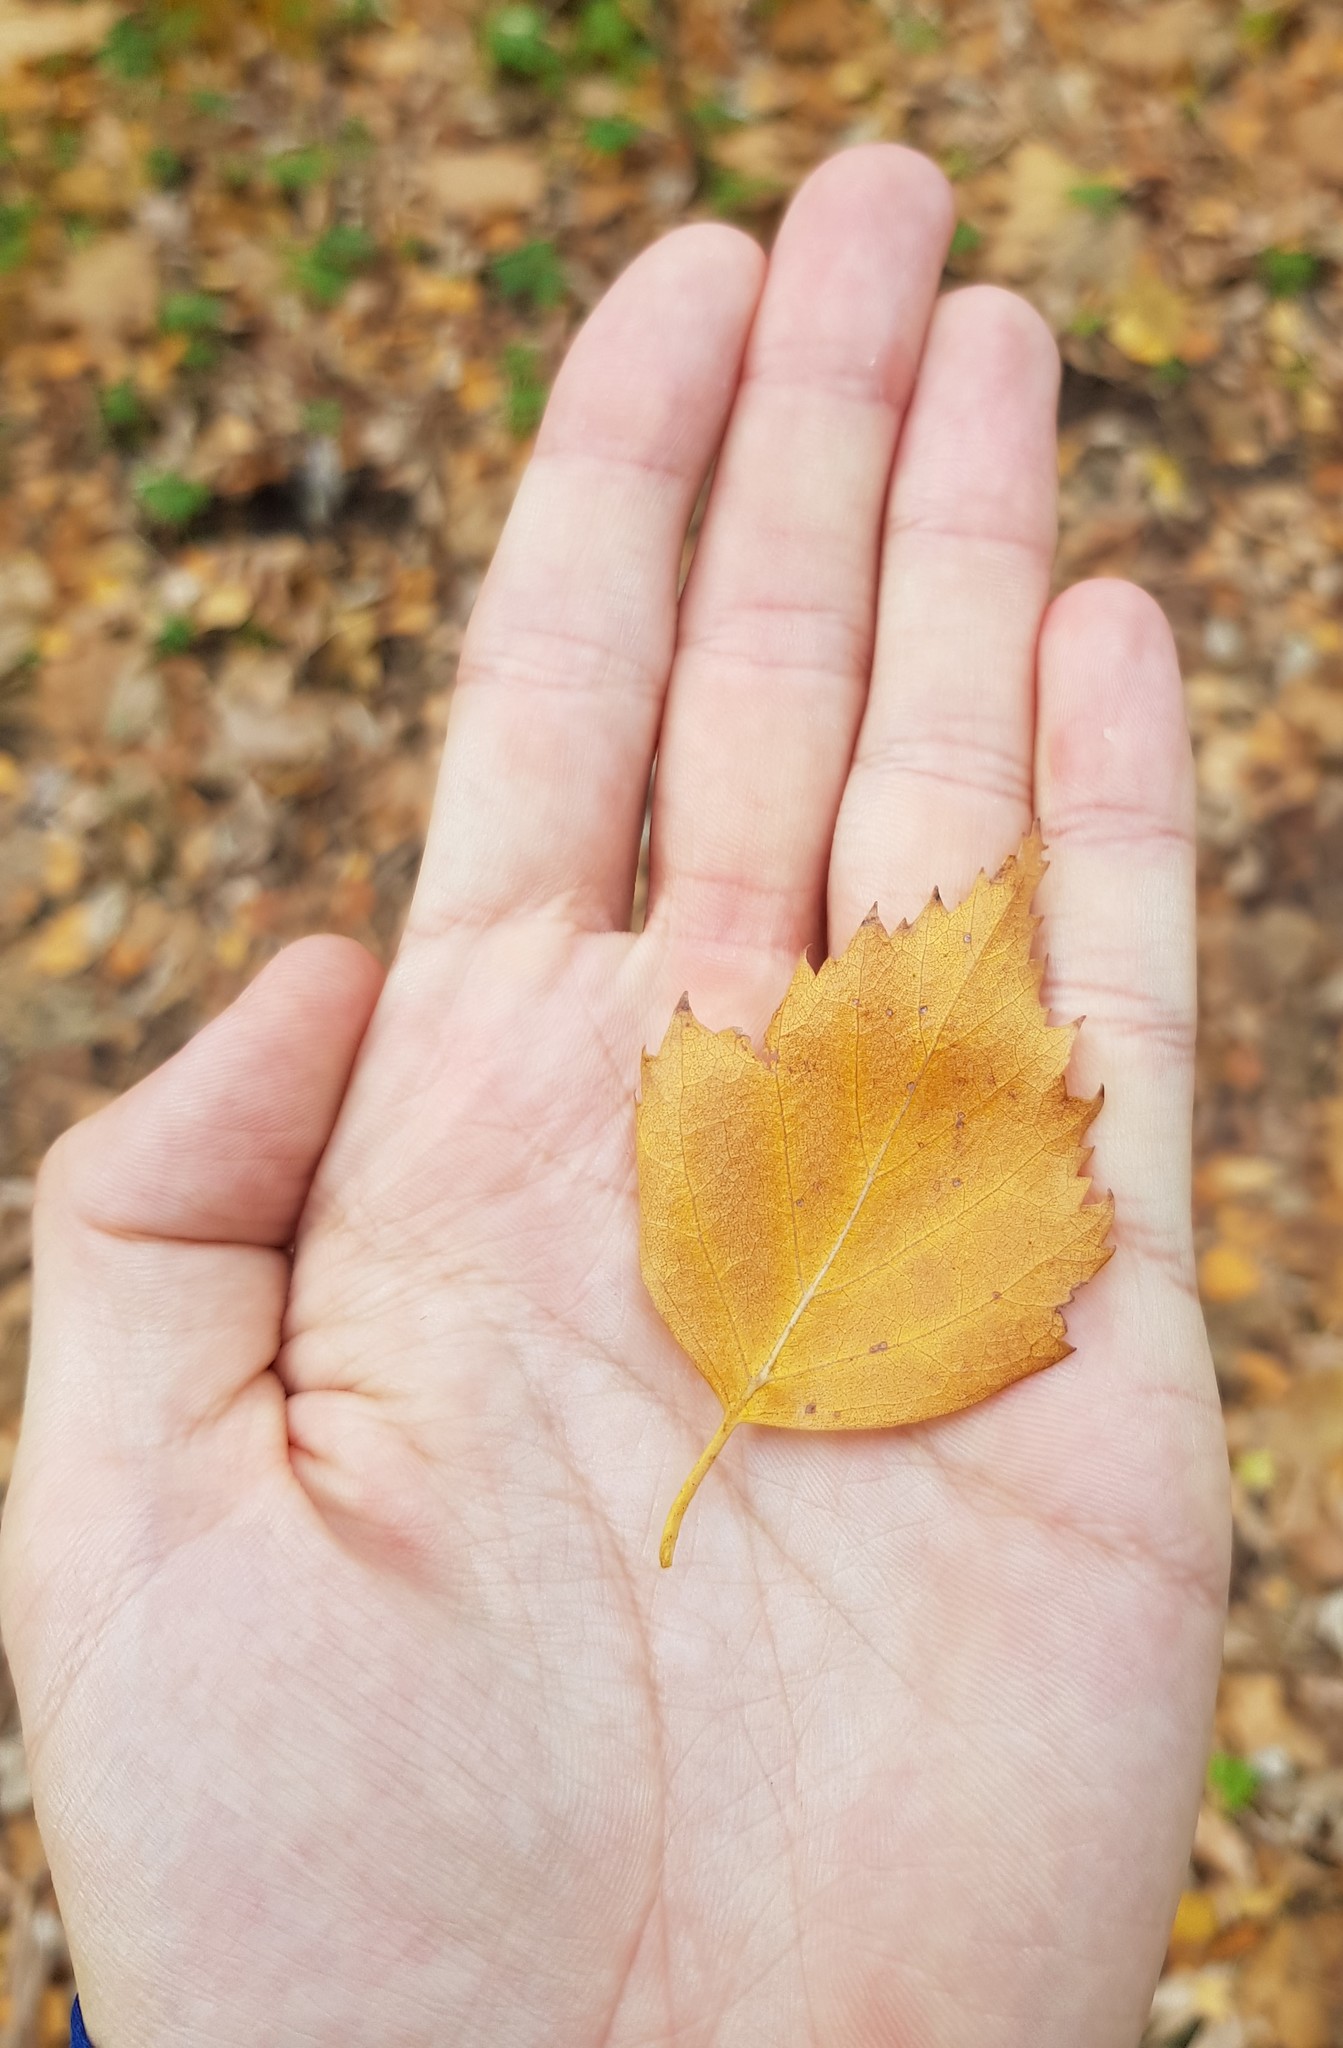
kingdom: Plantae
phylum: Tracheophyta
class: Magnoliopsida
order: Fagales
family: Betulaceae
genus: Betula
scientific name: Betula pendula
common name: Silver birch
